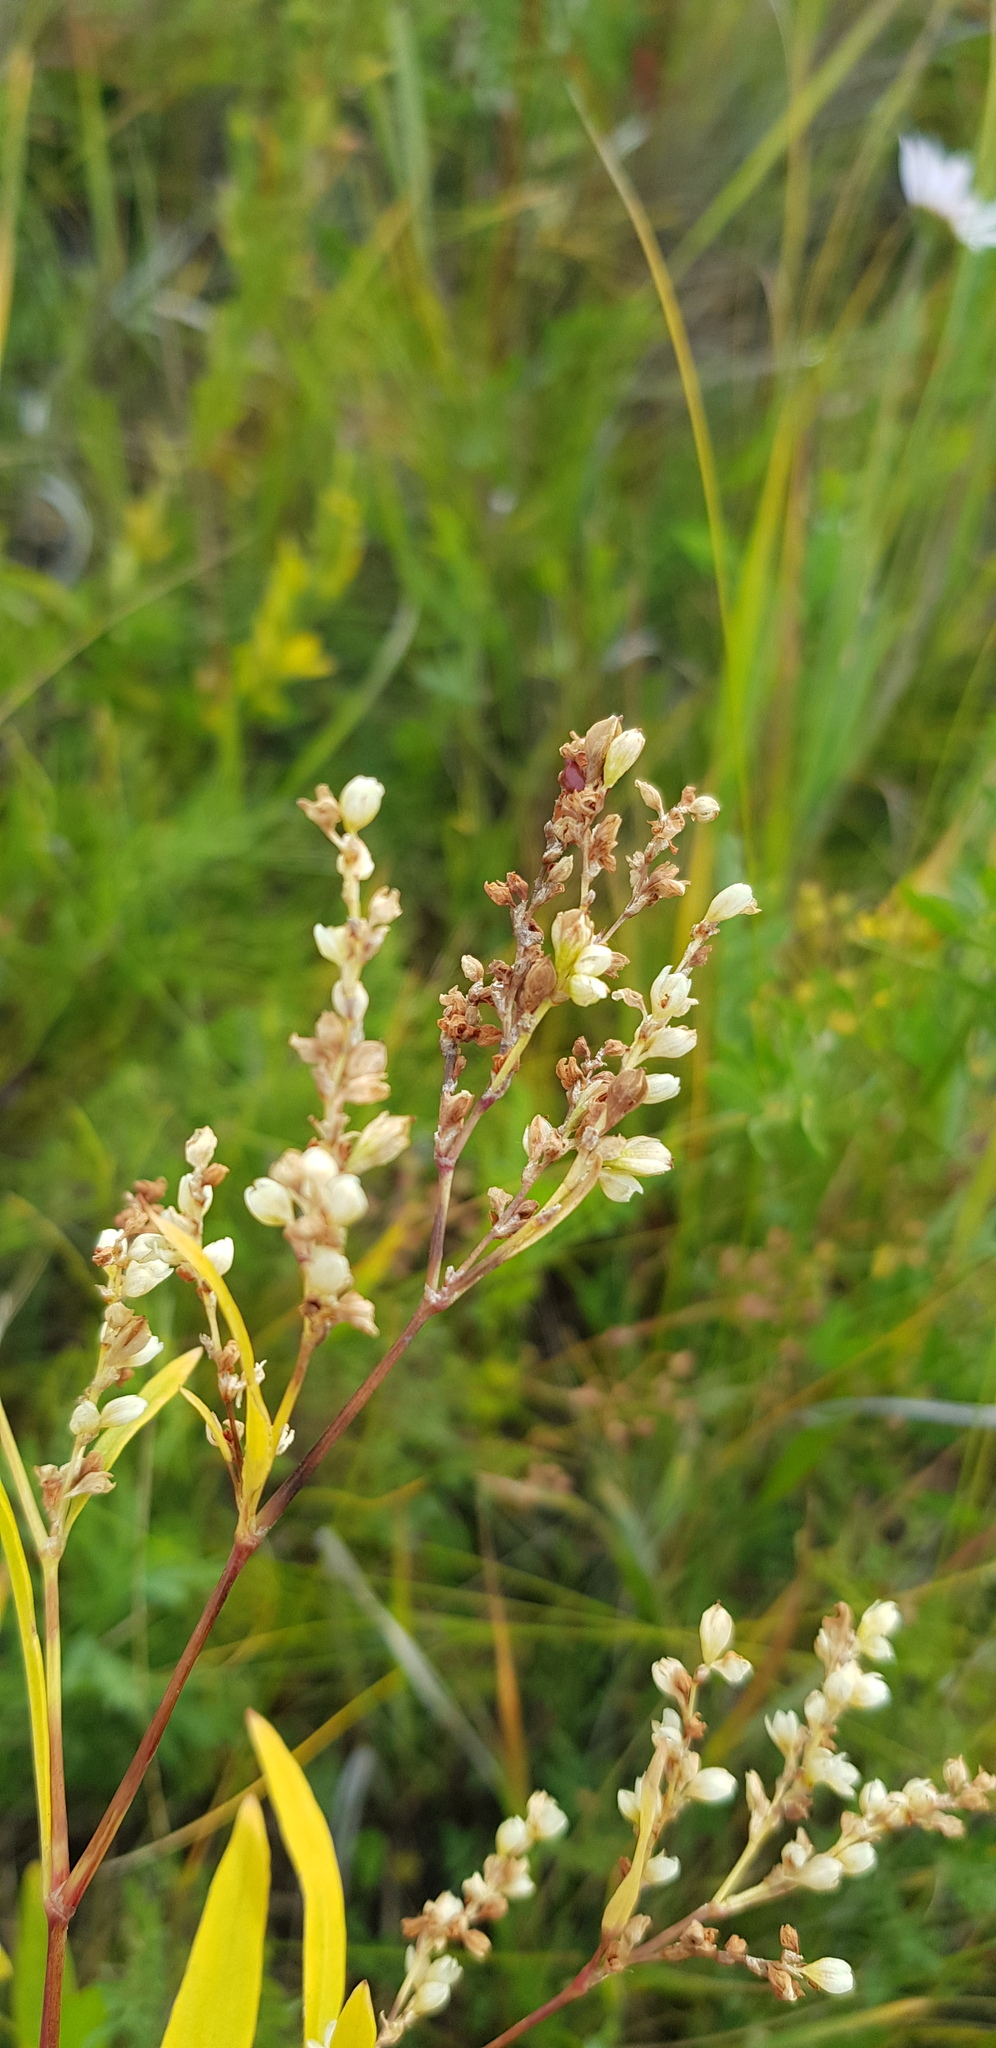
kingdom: Plantae
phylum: Tracheophyta
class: Magnoliopsida
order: Caryophyllales
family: Polygonaceae
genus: Koenigia
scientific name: Koenigia divaricata
